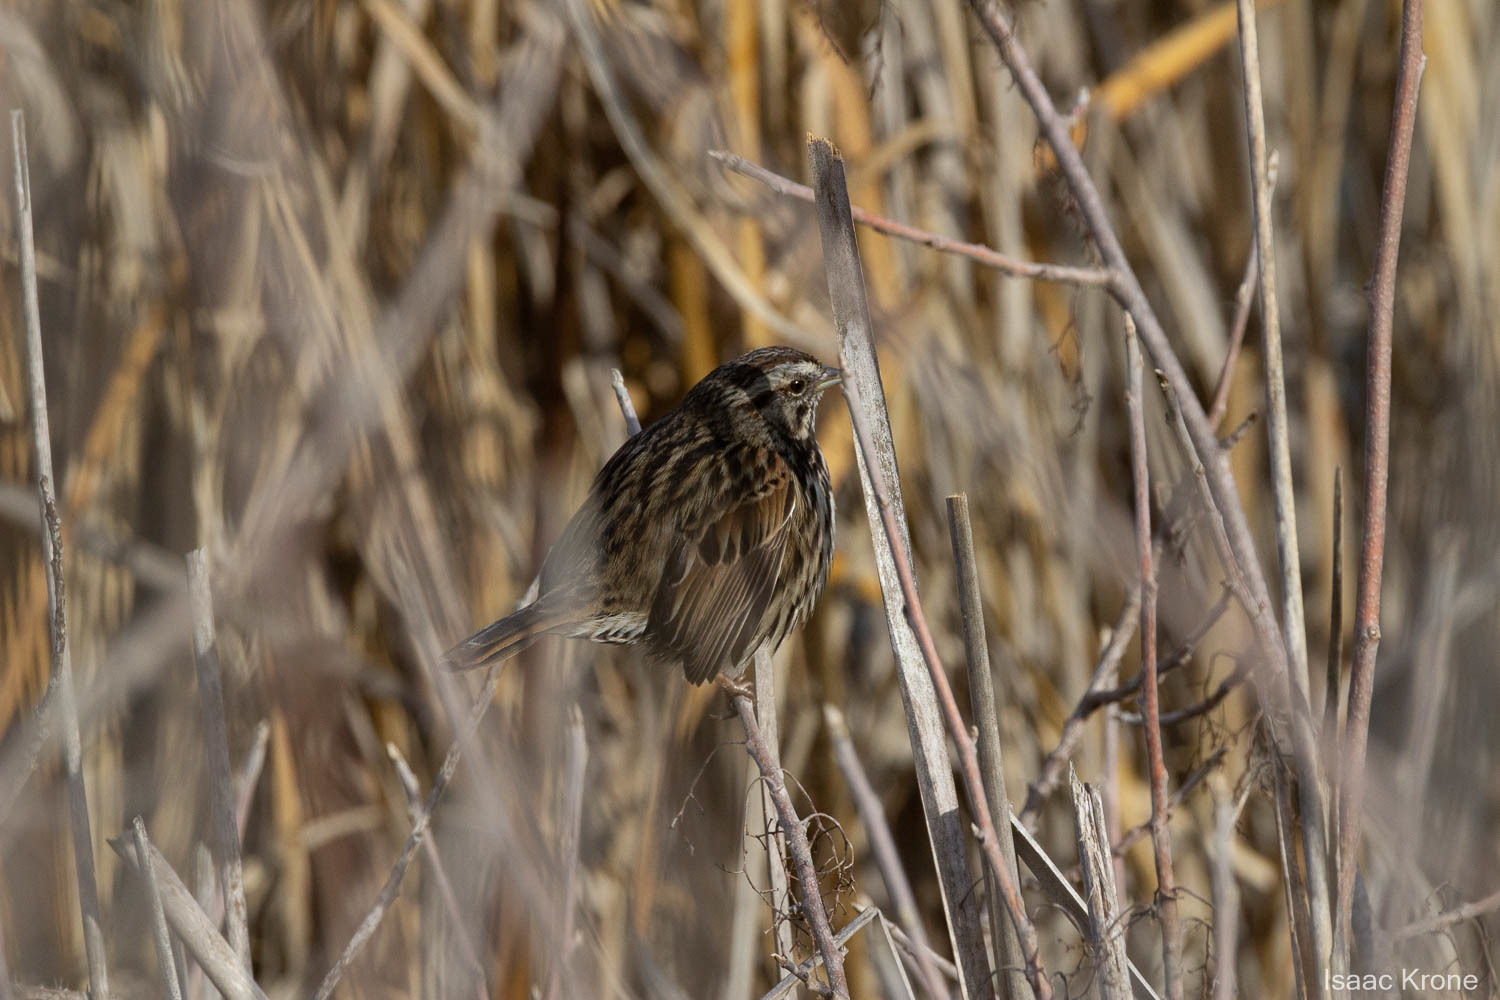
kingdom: Animalia
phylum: Chordata
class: Aves
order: Passeriformes
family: Passerellidae
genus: Melospiza
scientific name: Melospiza melodia
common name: Song sparrow
